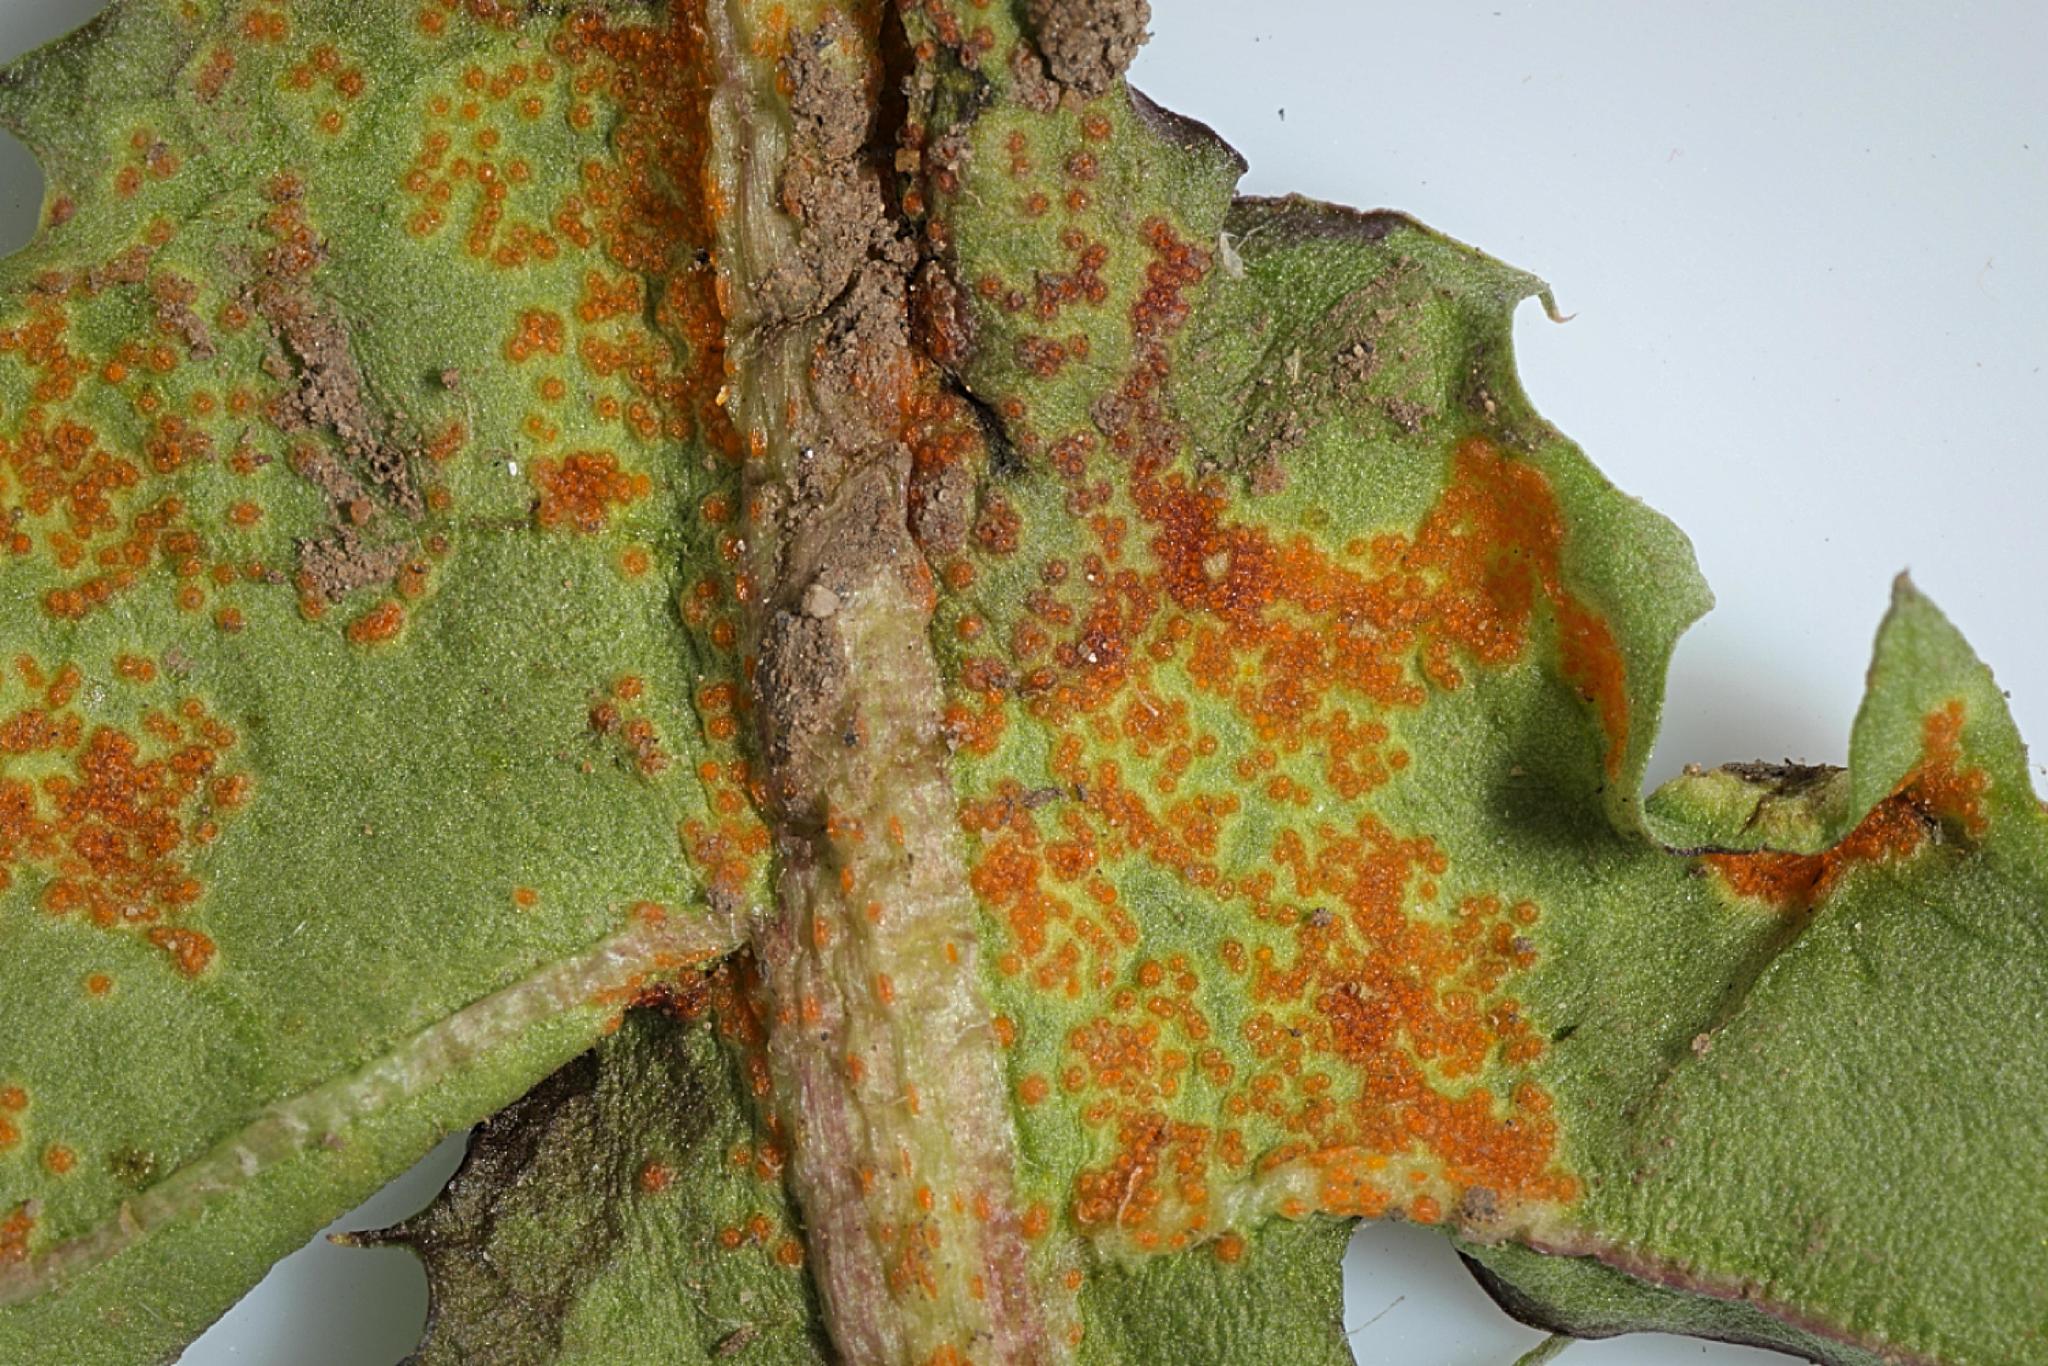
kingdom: Fungi
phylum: Basidiomycota
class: Pucciniomycetes
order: Pucciniales
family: Pucciniaceae
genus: Puccinia
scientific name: Puccinia hieracii
